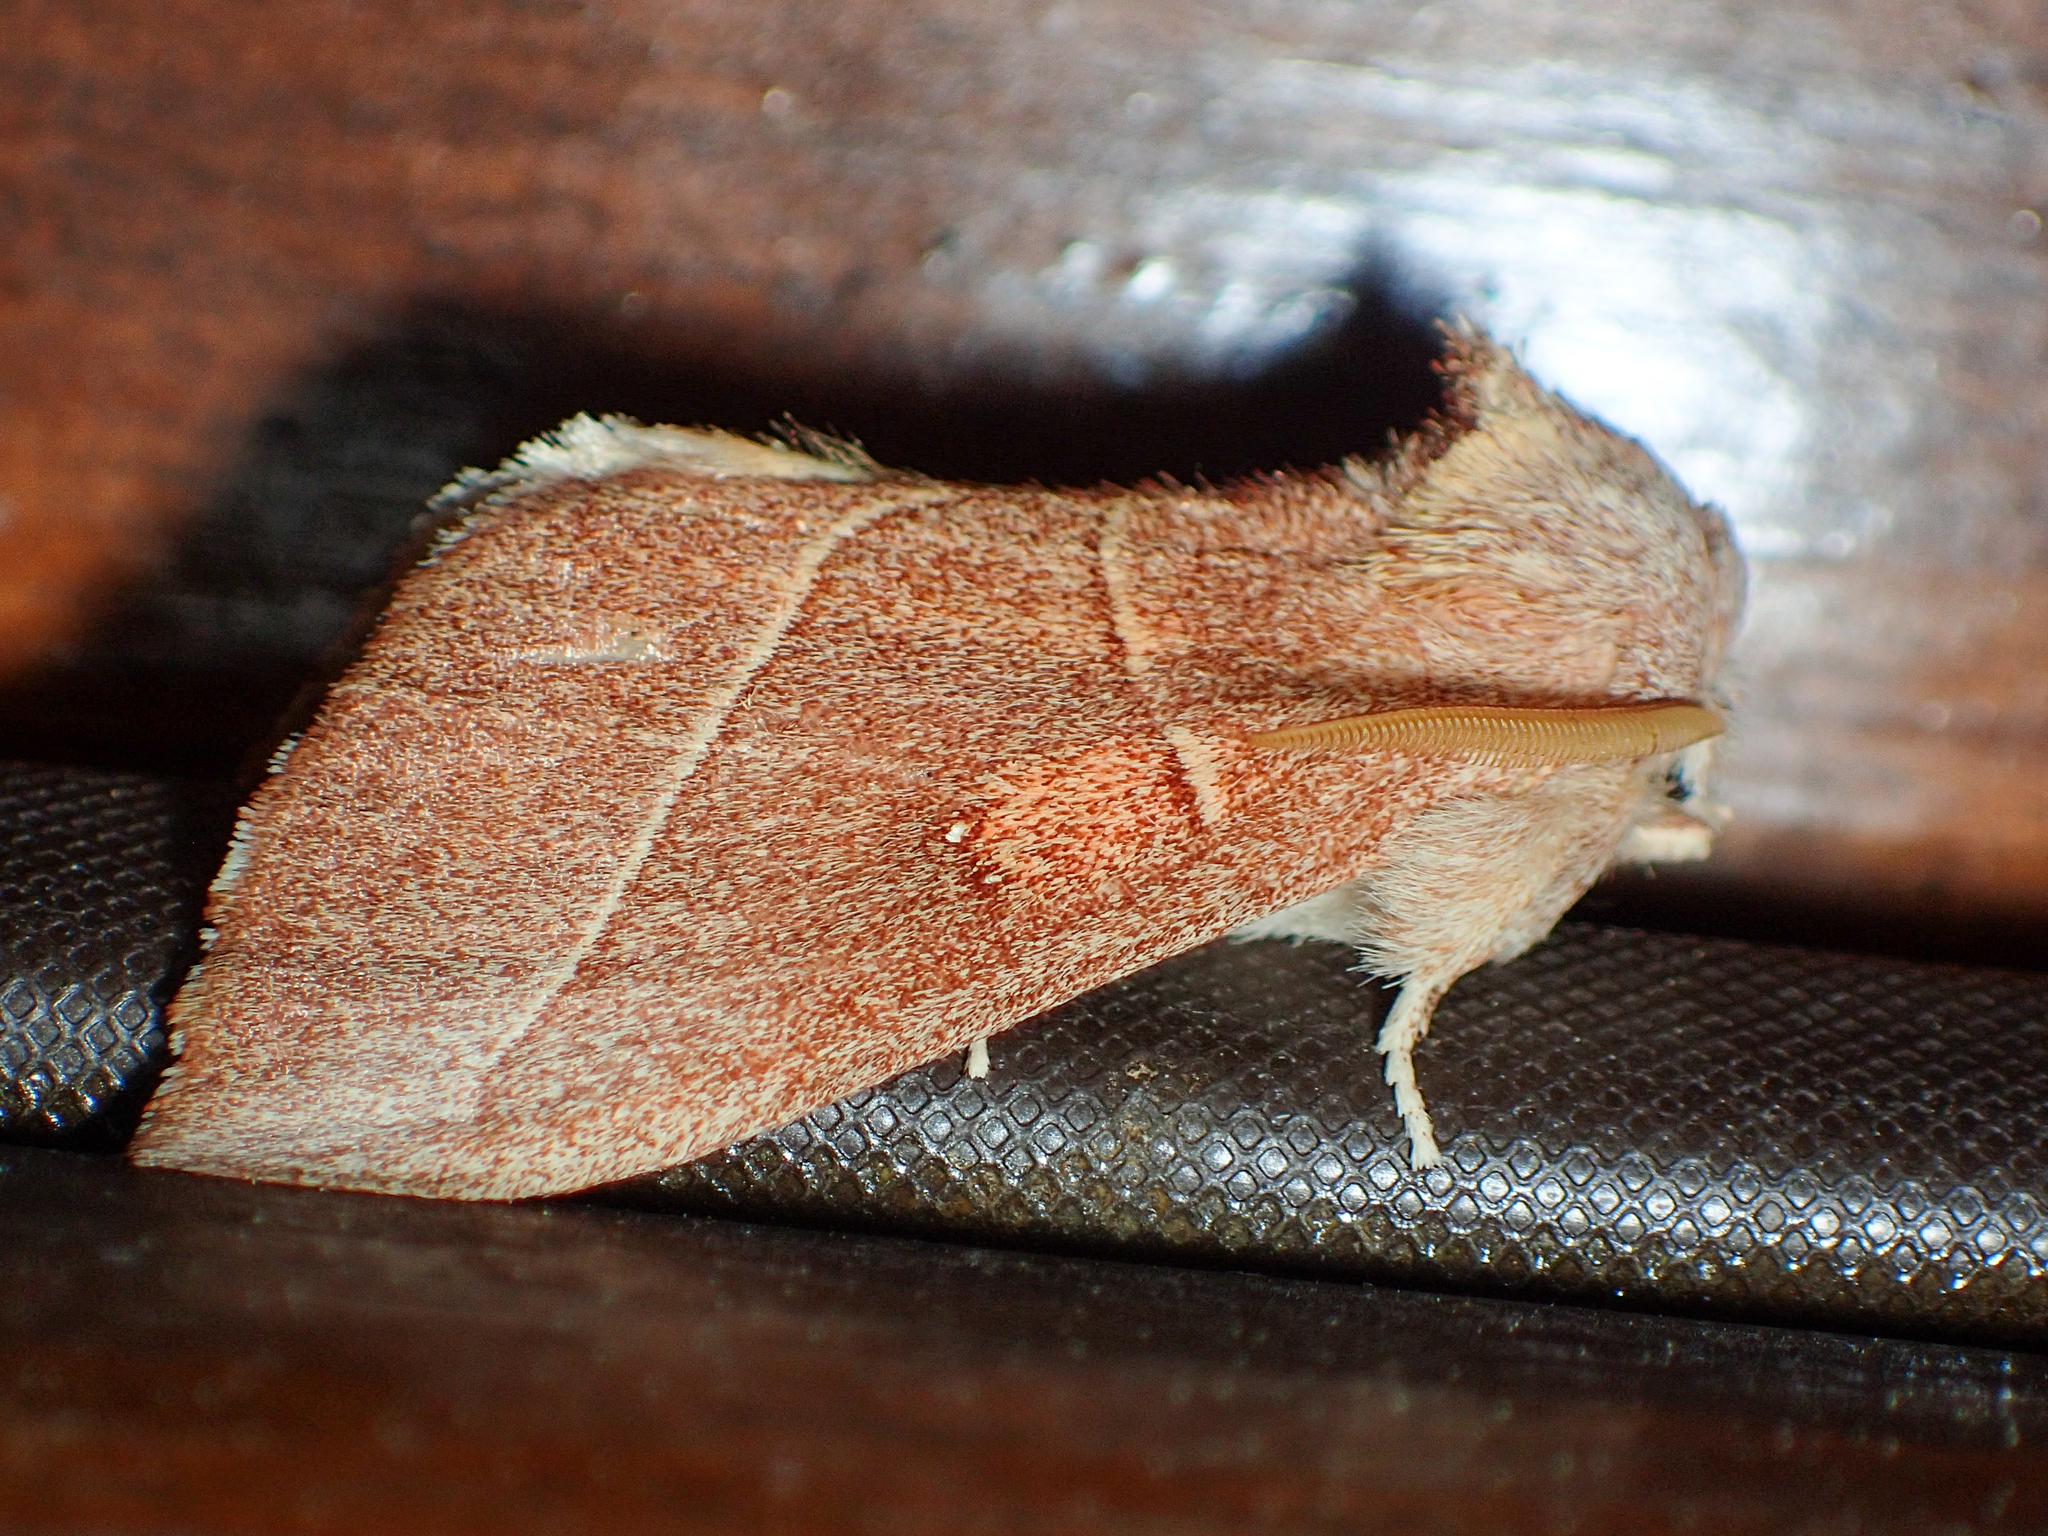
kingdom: Animalia
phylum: Arthropoda
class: Insecta
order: Lepidoptera
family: Notodontidae
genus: Nadata
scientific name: Nadata gibbosa
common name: White-dotted prominent
